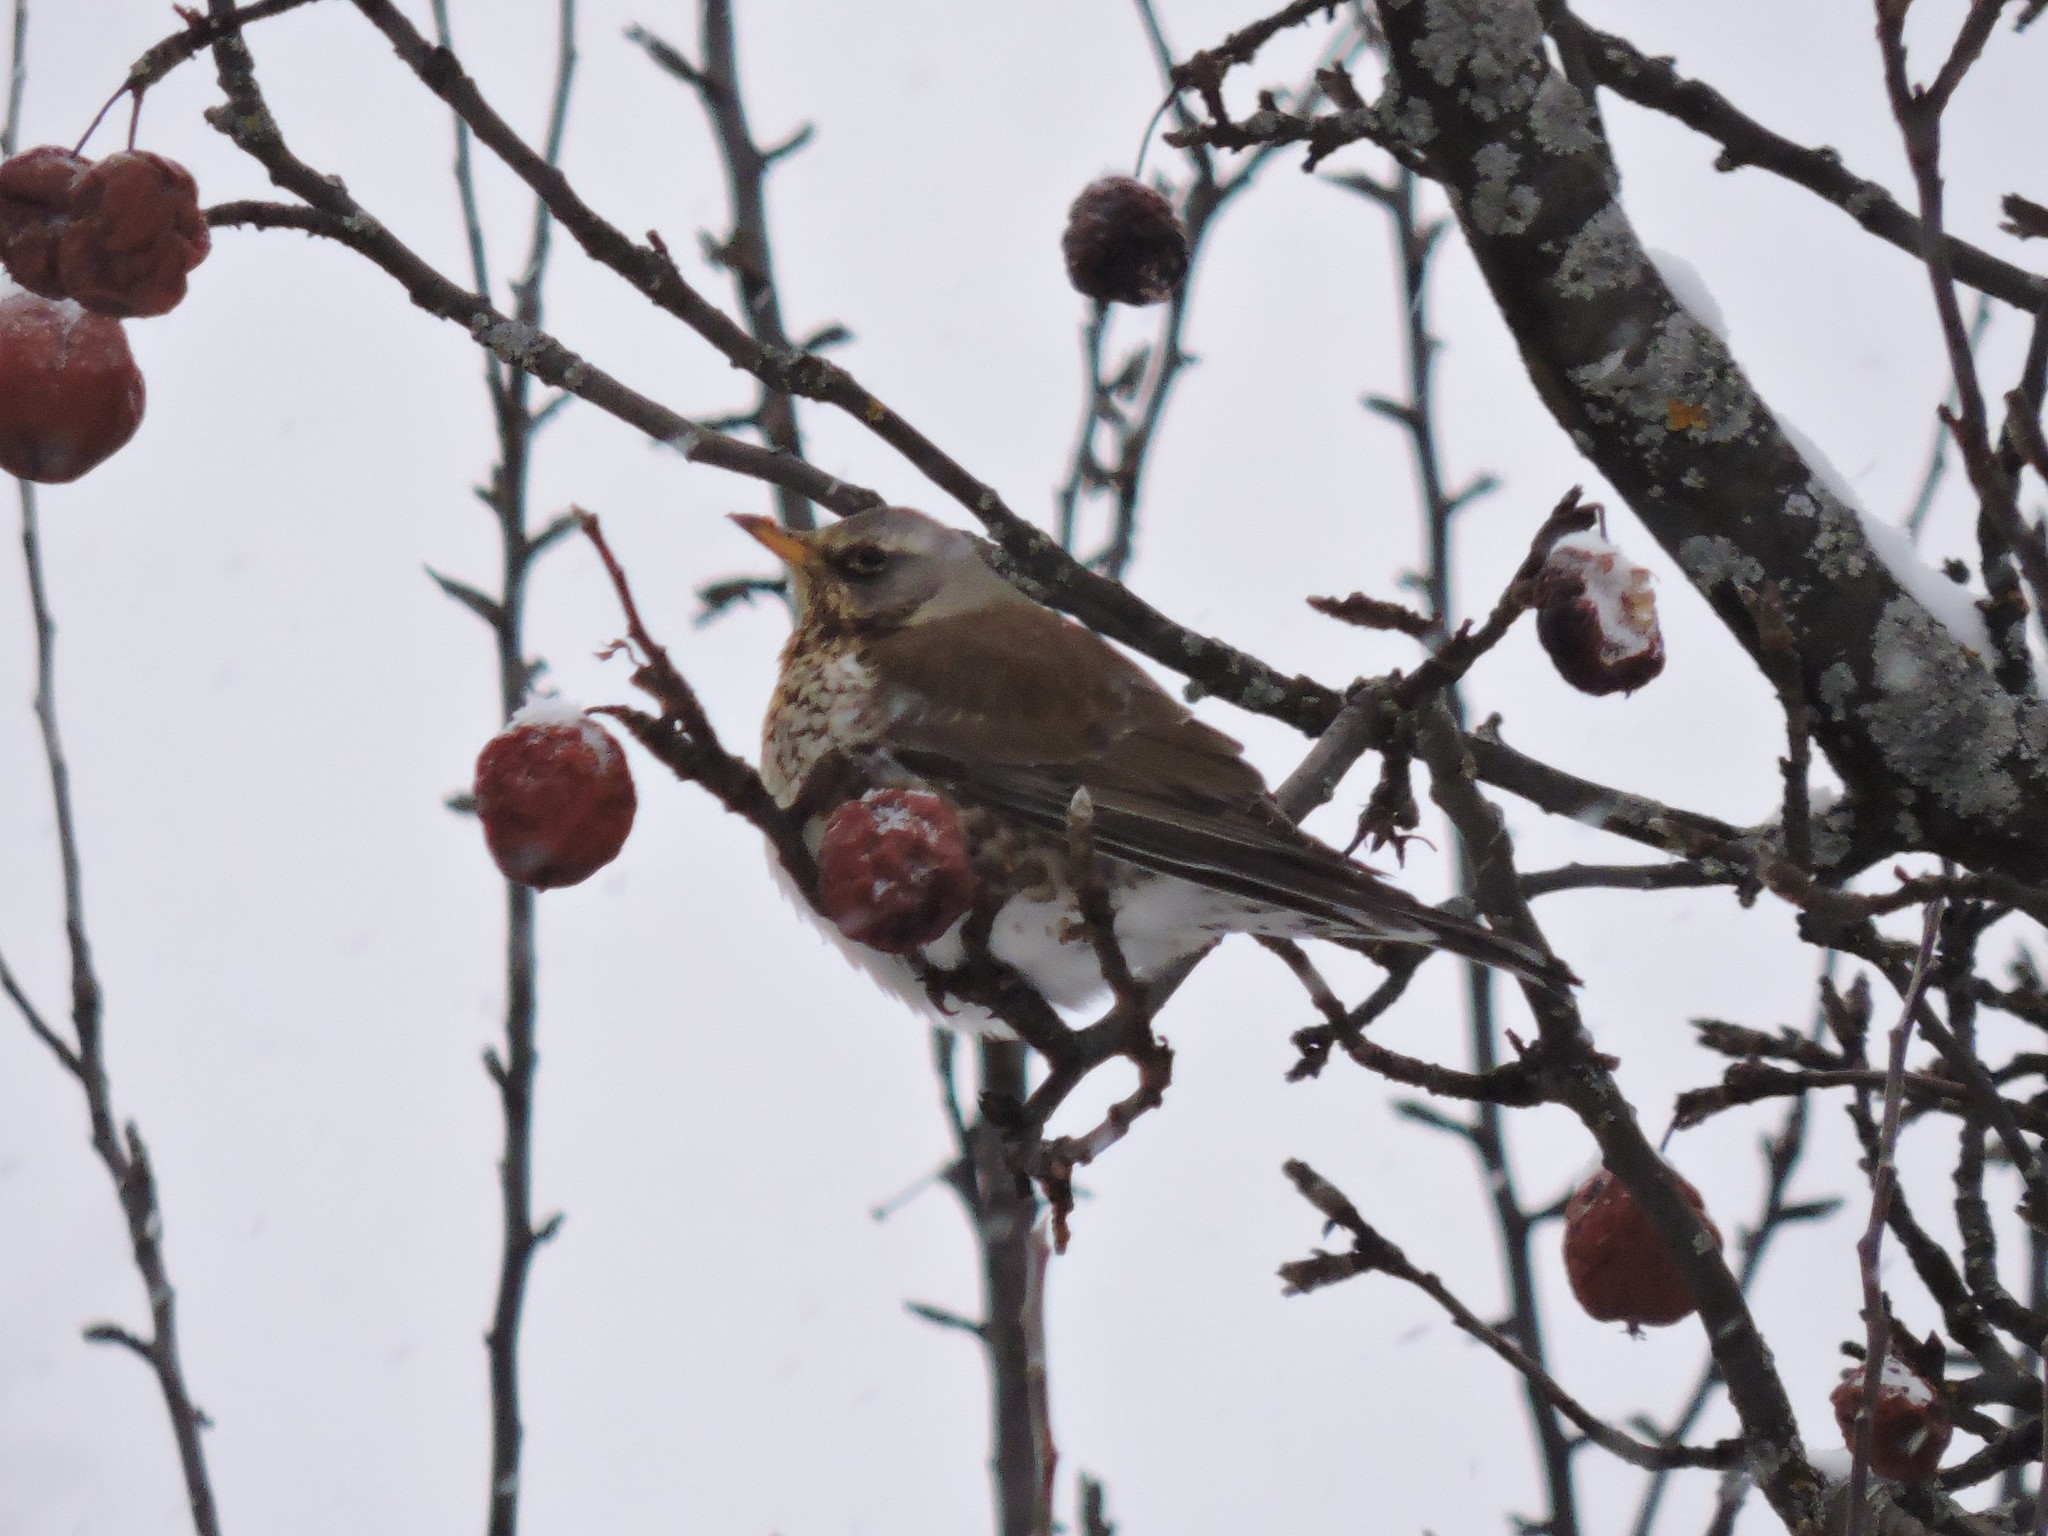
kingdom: Animalia
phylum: Chordata
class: Aves
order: Passeriformes
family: Turdidae
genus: Turdus
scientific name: Turdus pilaris
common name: Fieldfare
